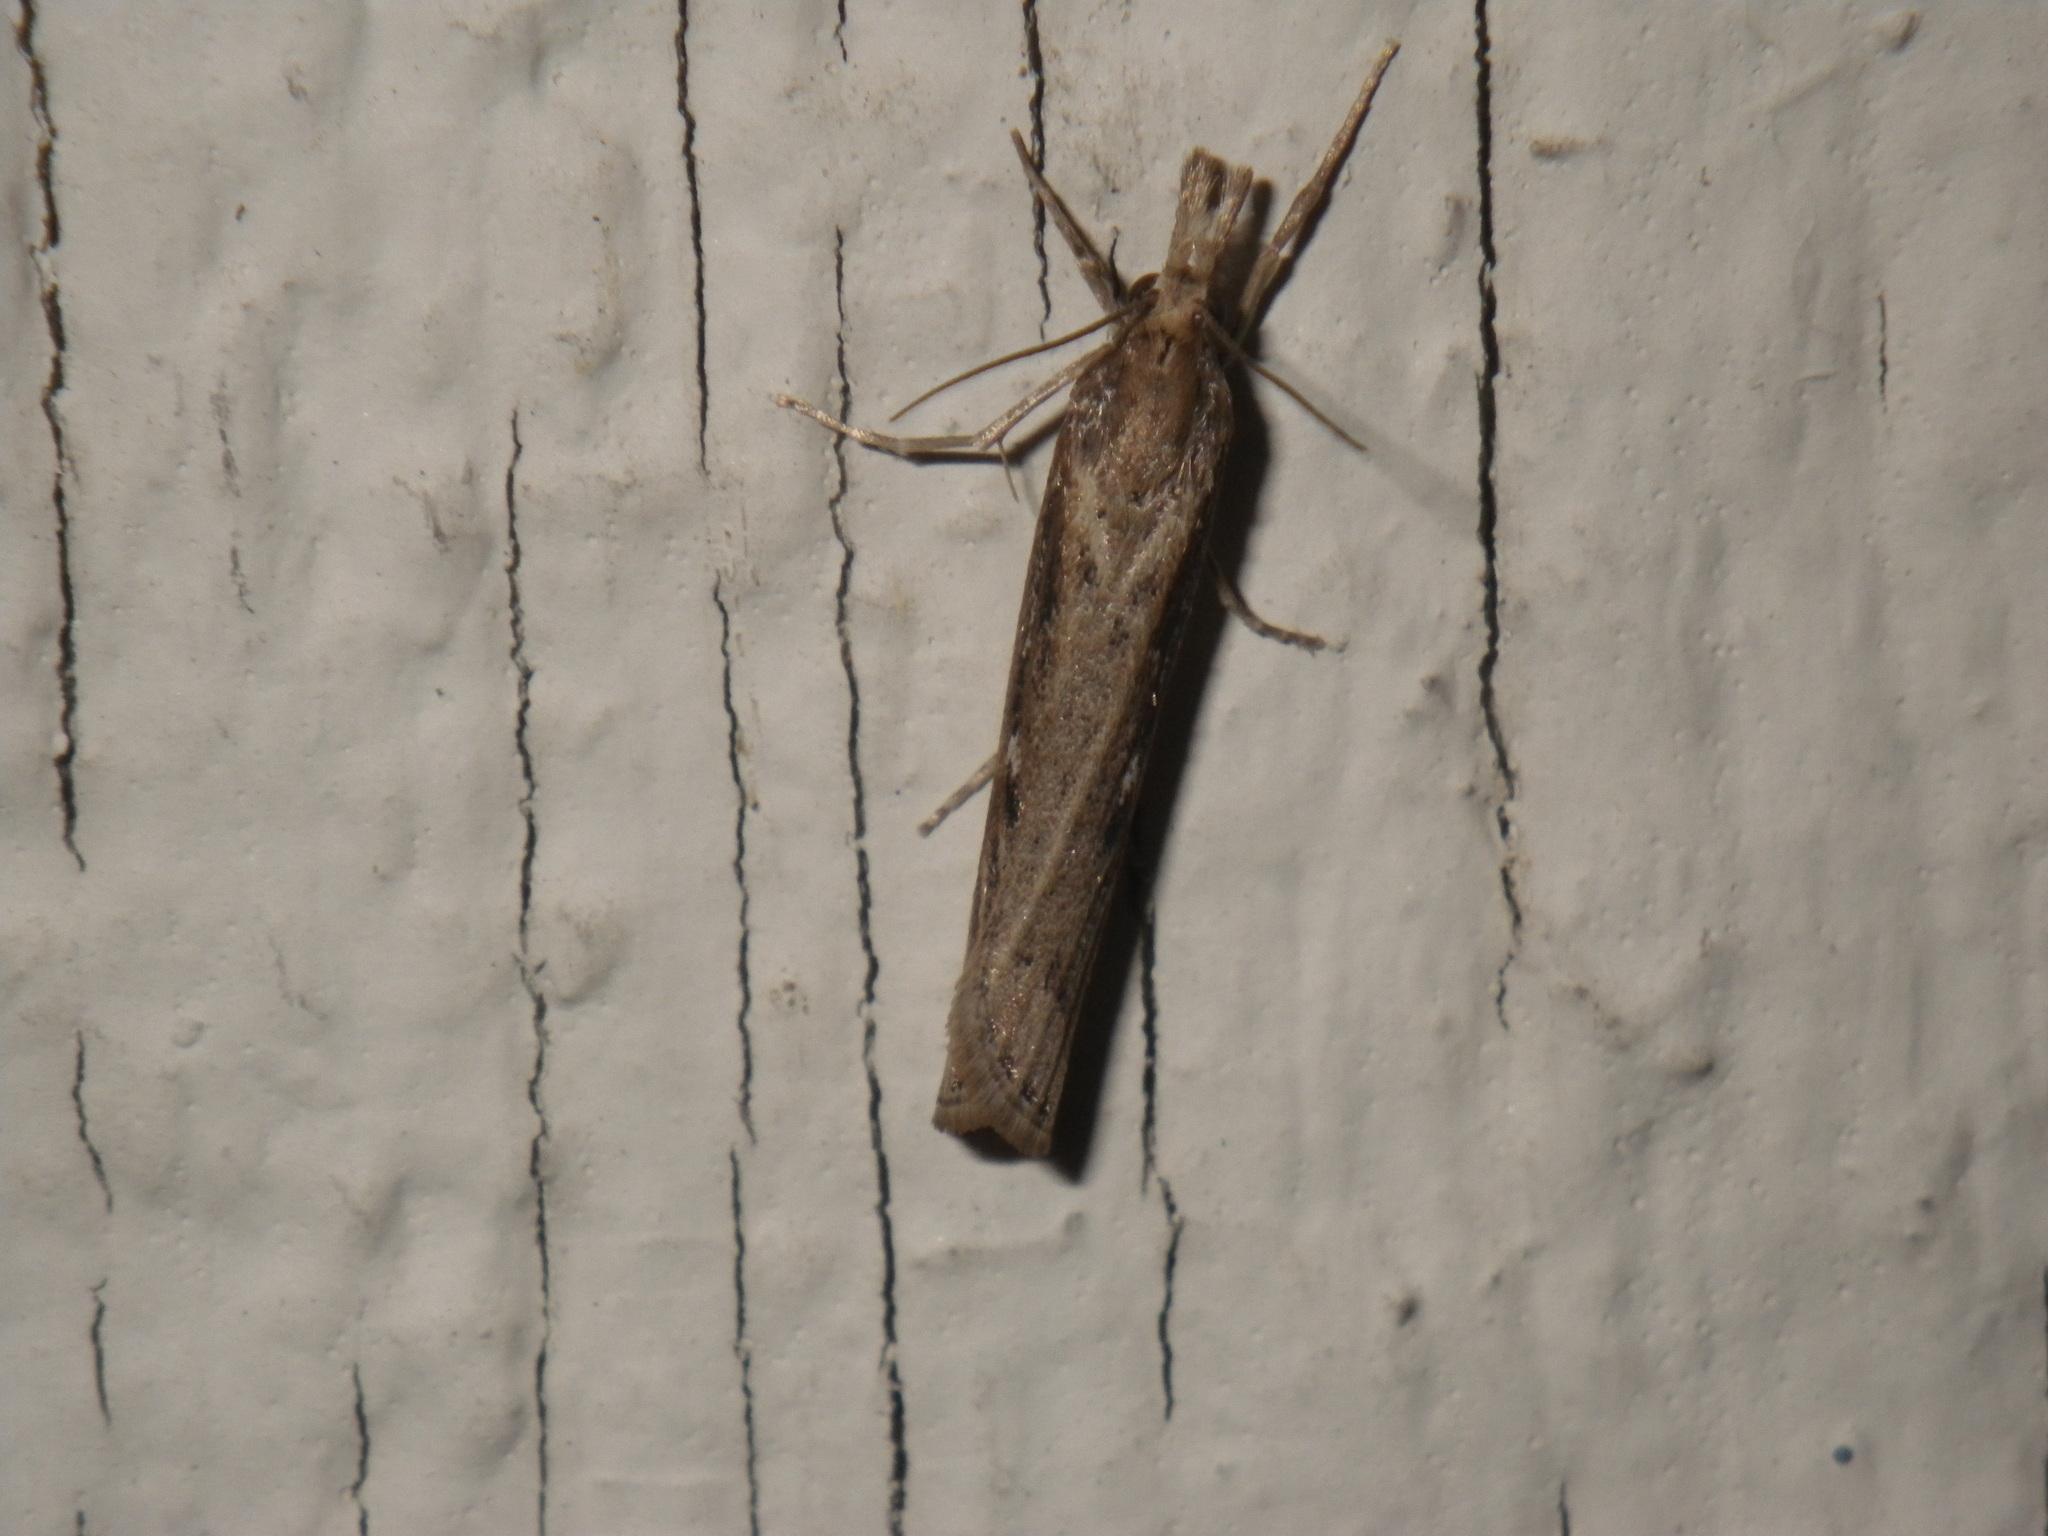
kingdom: Animalia
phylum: Arthropoda
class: Insecta
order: Lepidoptera
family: Crambidae
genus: Tehama
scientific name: Tehama bonifatellus
